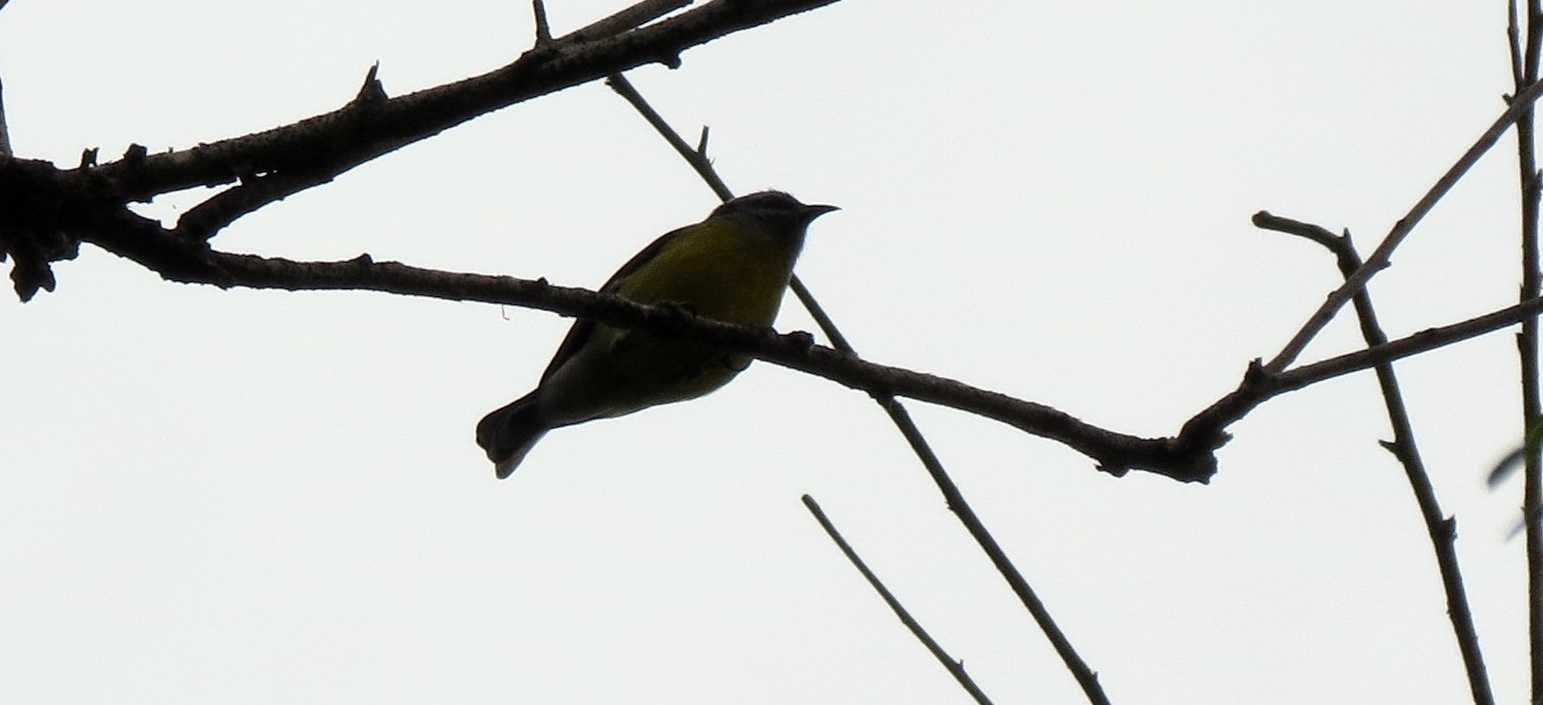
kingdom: Animalia
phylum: Chordata
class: Aves
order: Passeriformes
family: Thraupidae
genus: Coereba
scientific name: Coereba flaveola
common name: Bananaquit
